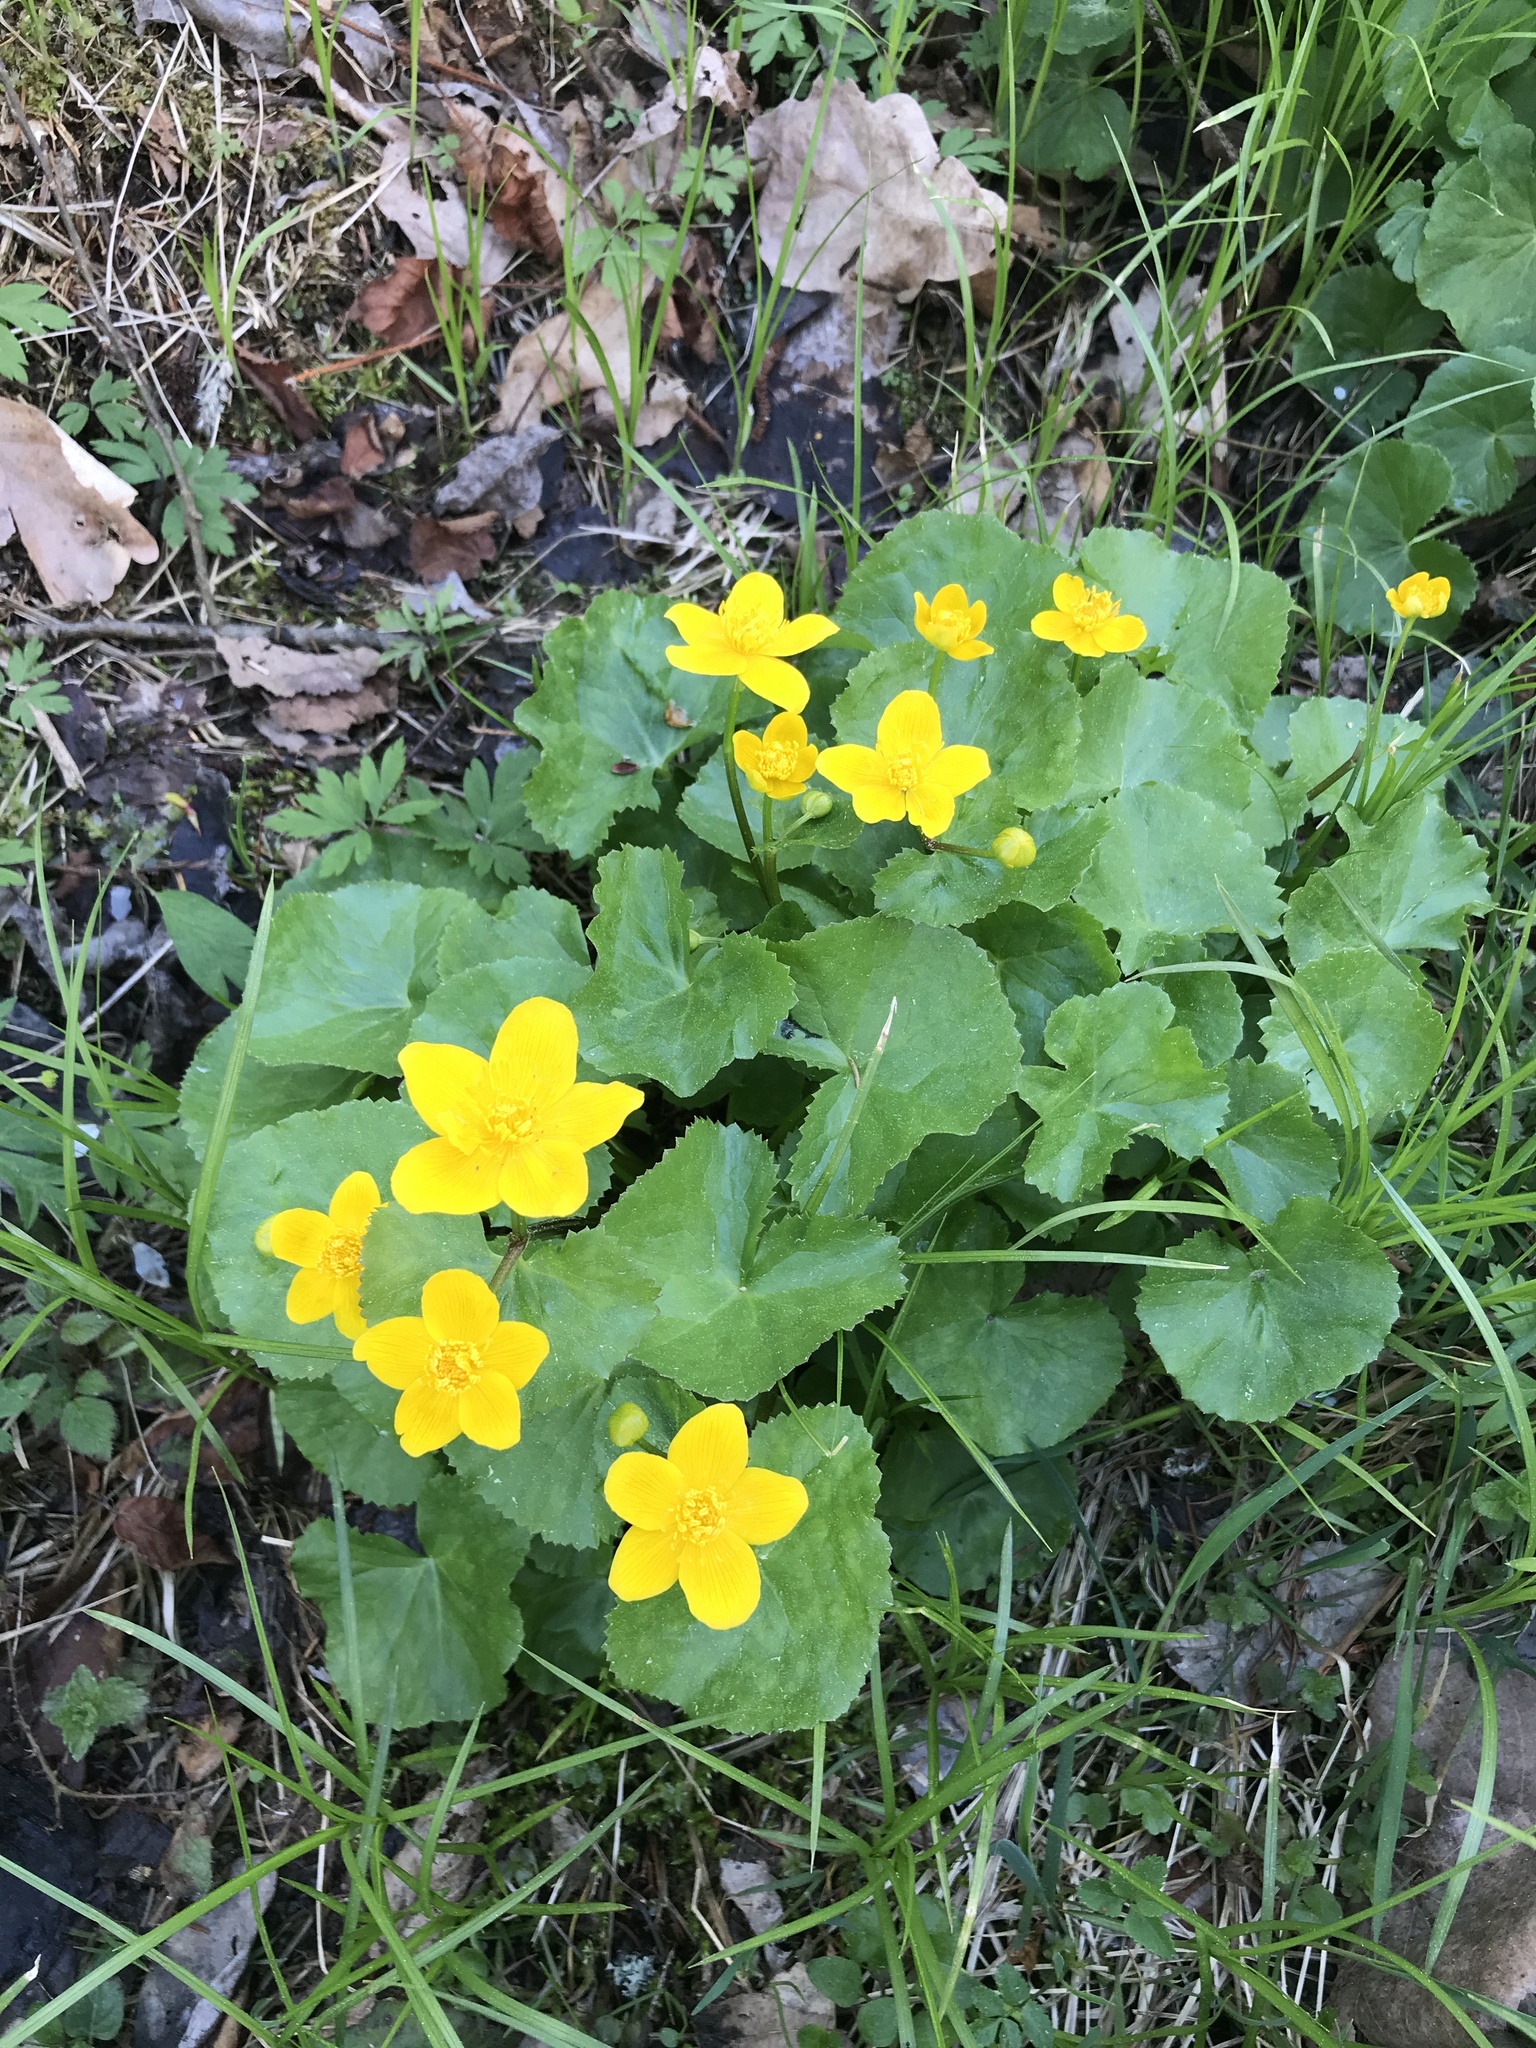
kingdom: Plantae
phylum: Tracheophyta
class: Magnoliopsida
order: Ranunculales
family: Ranunculaceae
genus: Caltha
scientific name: Caltha palustris
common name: Marsh marigold
